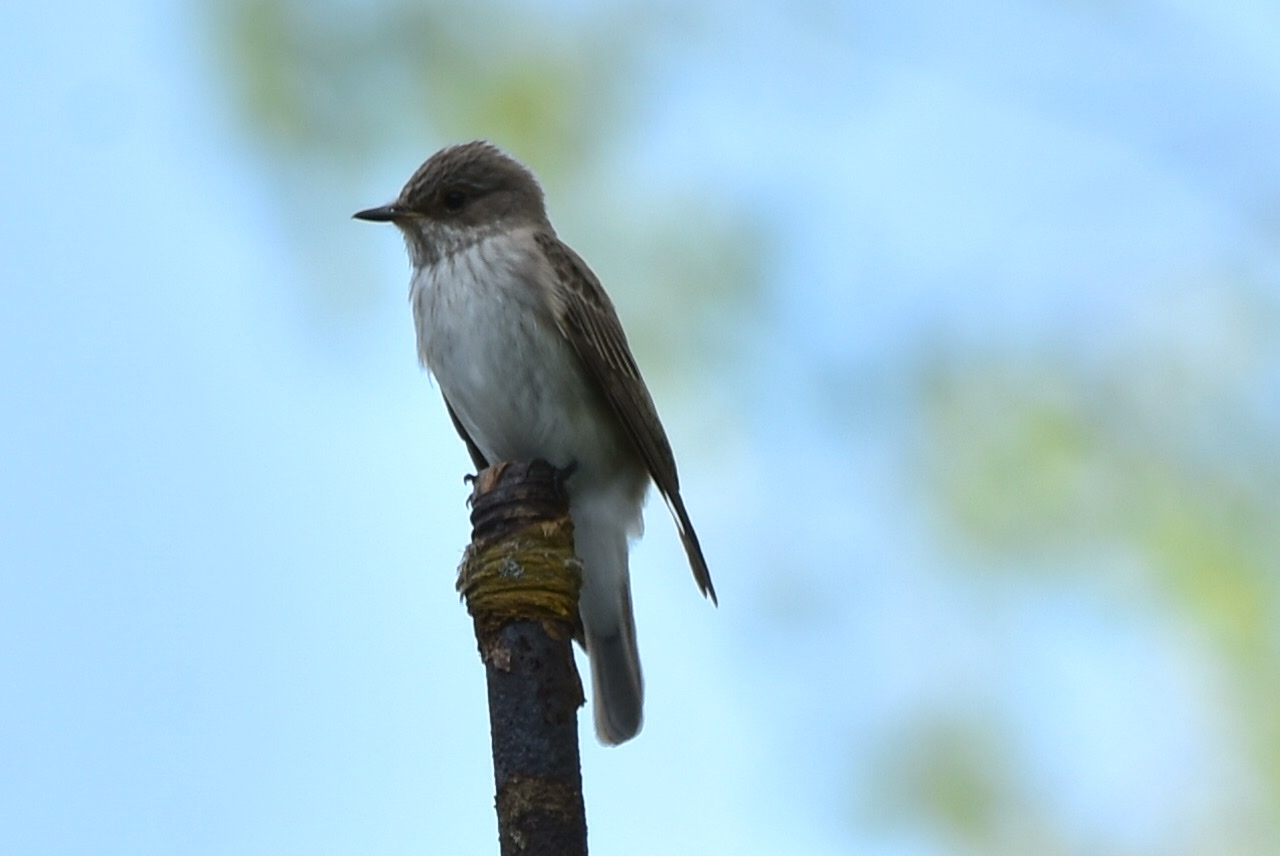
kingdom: Animalia
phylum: Chordata
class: Aves
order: Passeriformes
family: Muscicapidae
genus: Muscicapa
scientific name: Muscicapa striata
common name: Spotted flycatcher
